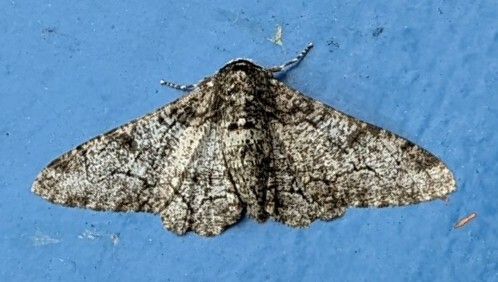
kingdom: Animalia
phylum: Arthropoda
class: Insecta
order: Lepidoptera
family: Geometridae
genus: Biston
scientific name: Biston betularia
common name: Peppered moth
